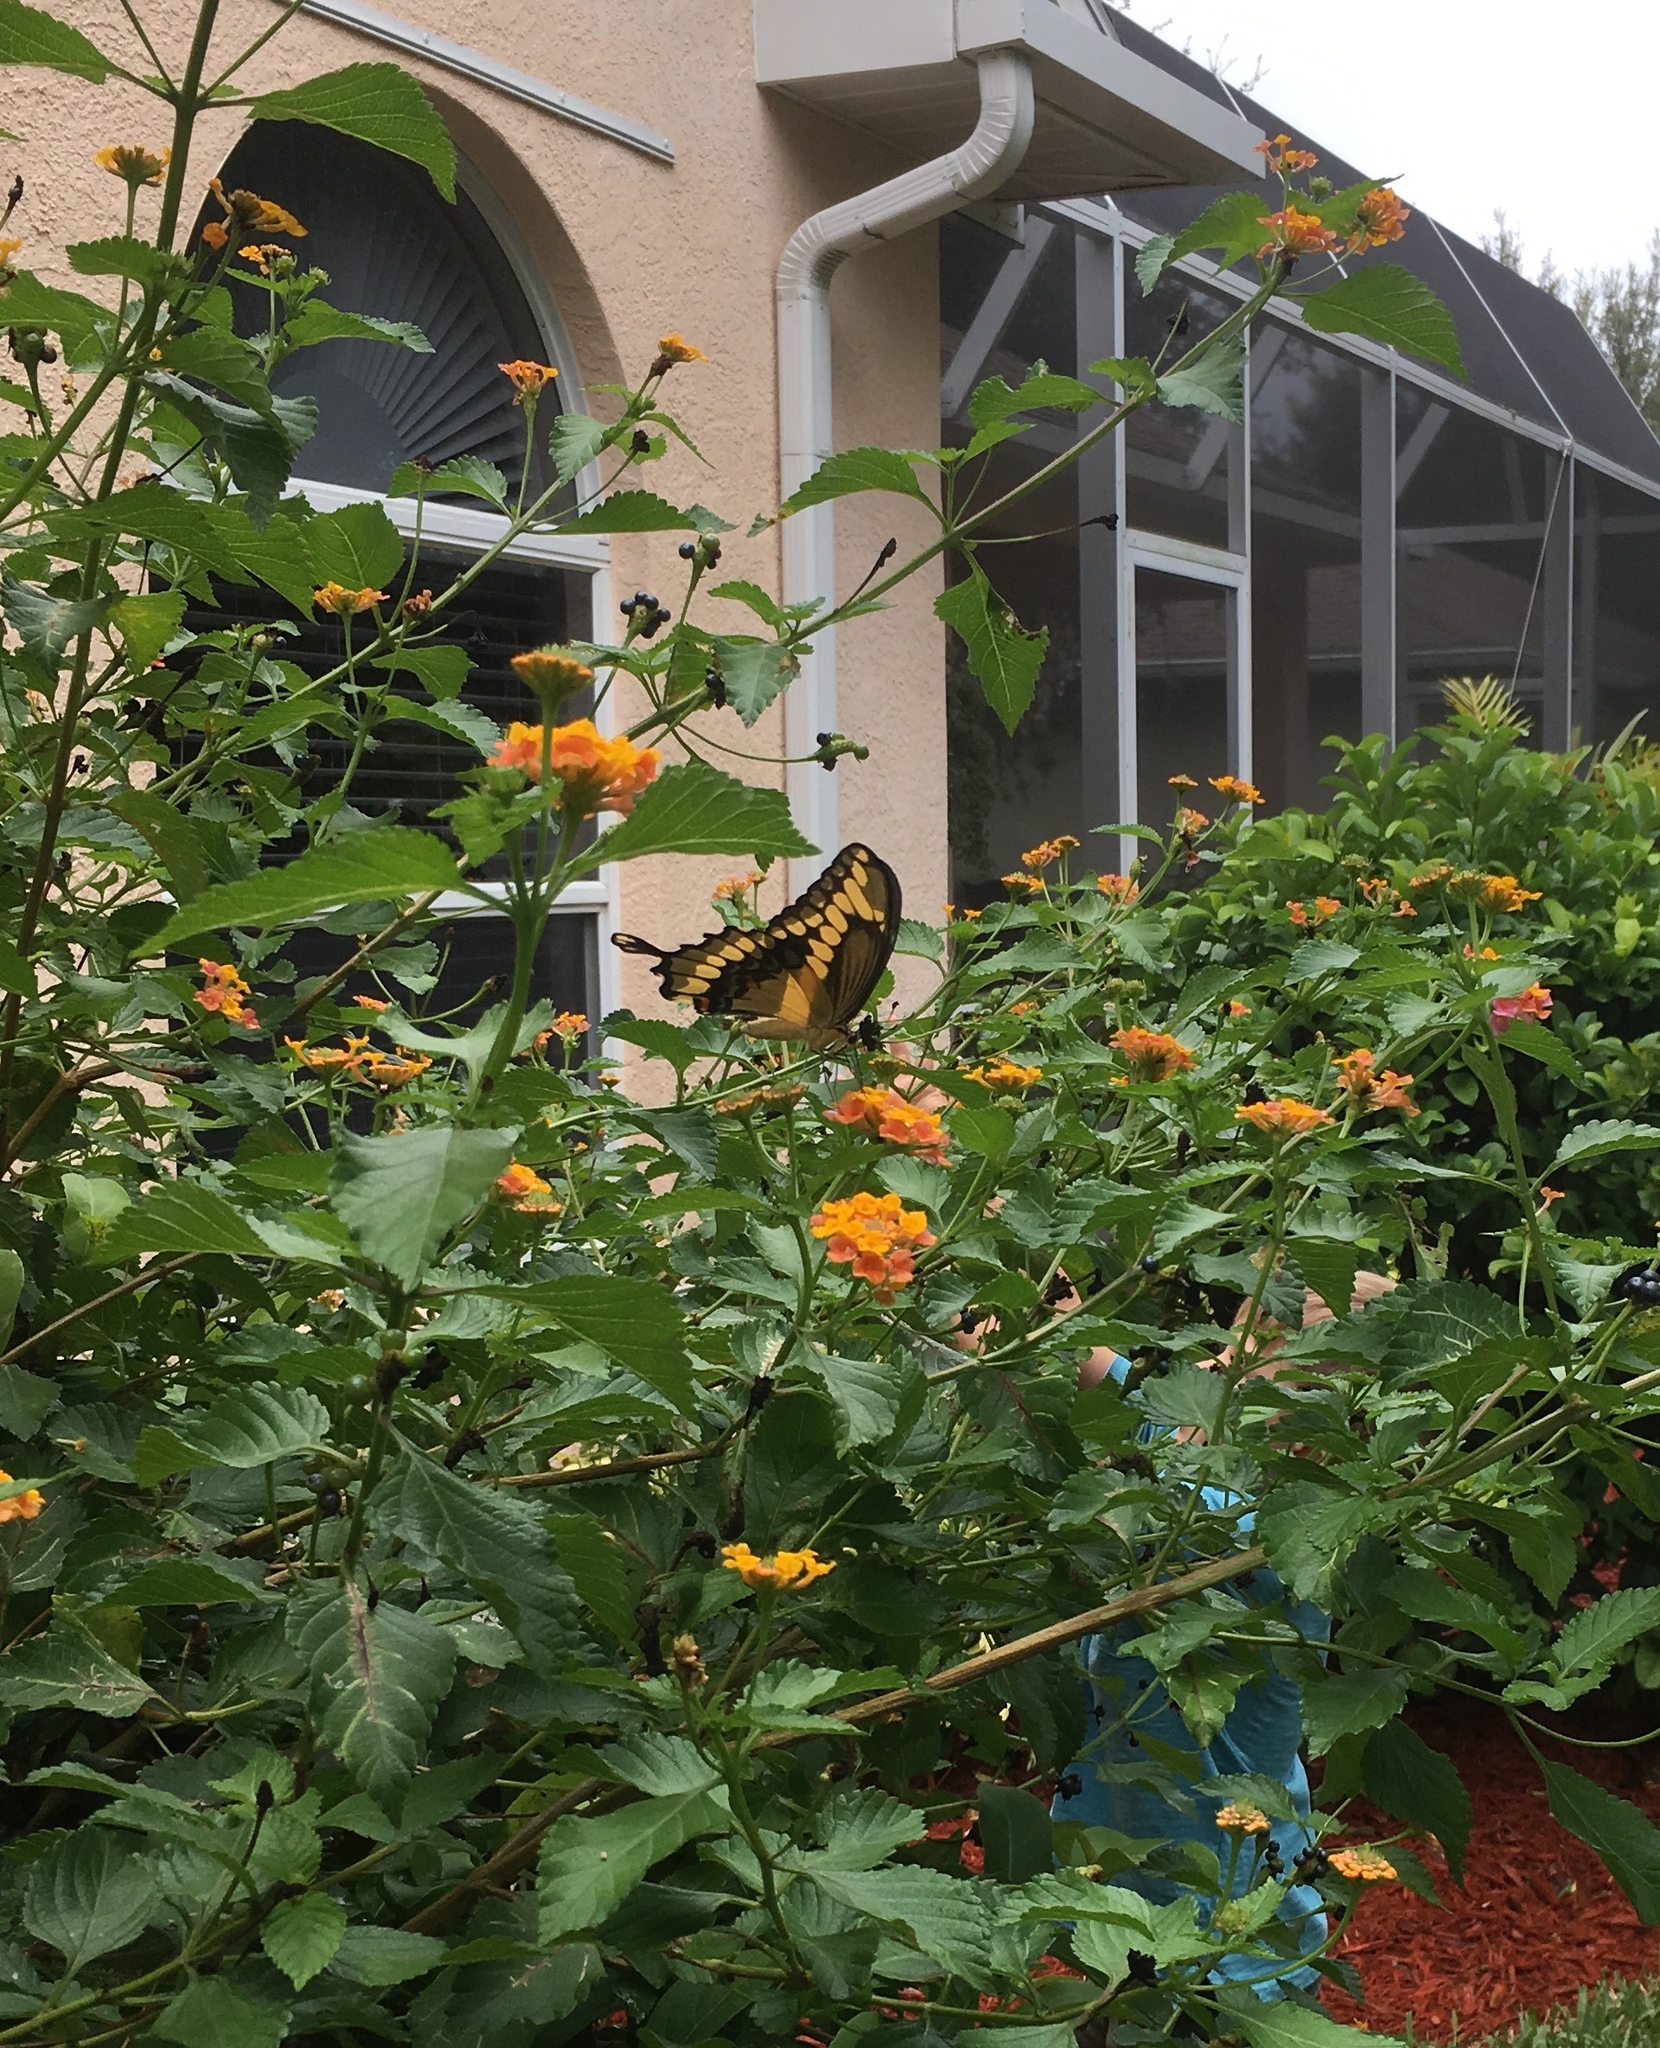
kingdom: Animalia
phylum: Arthropoda
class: Insecta
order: Lepidoptera
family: Papilionidae
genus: Papilio
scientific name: Papilio cresphontes
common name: Giant swallowtail
